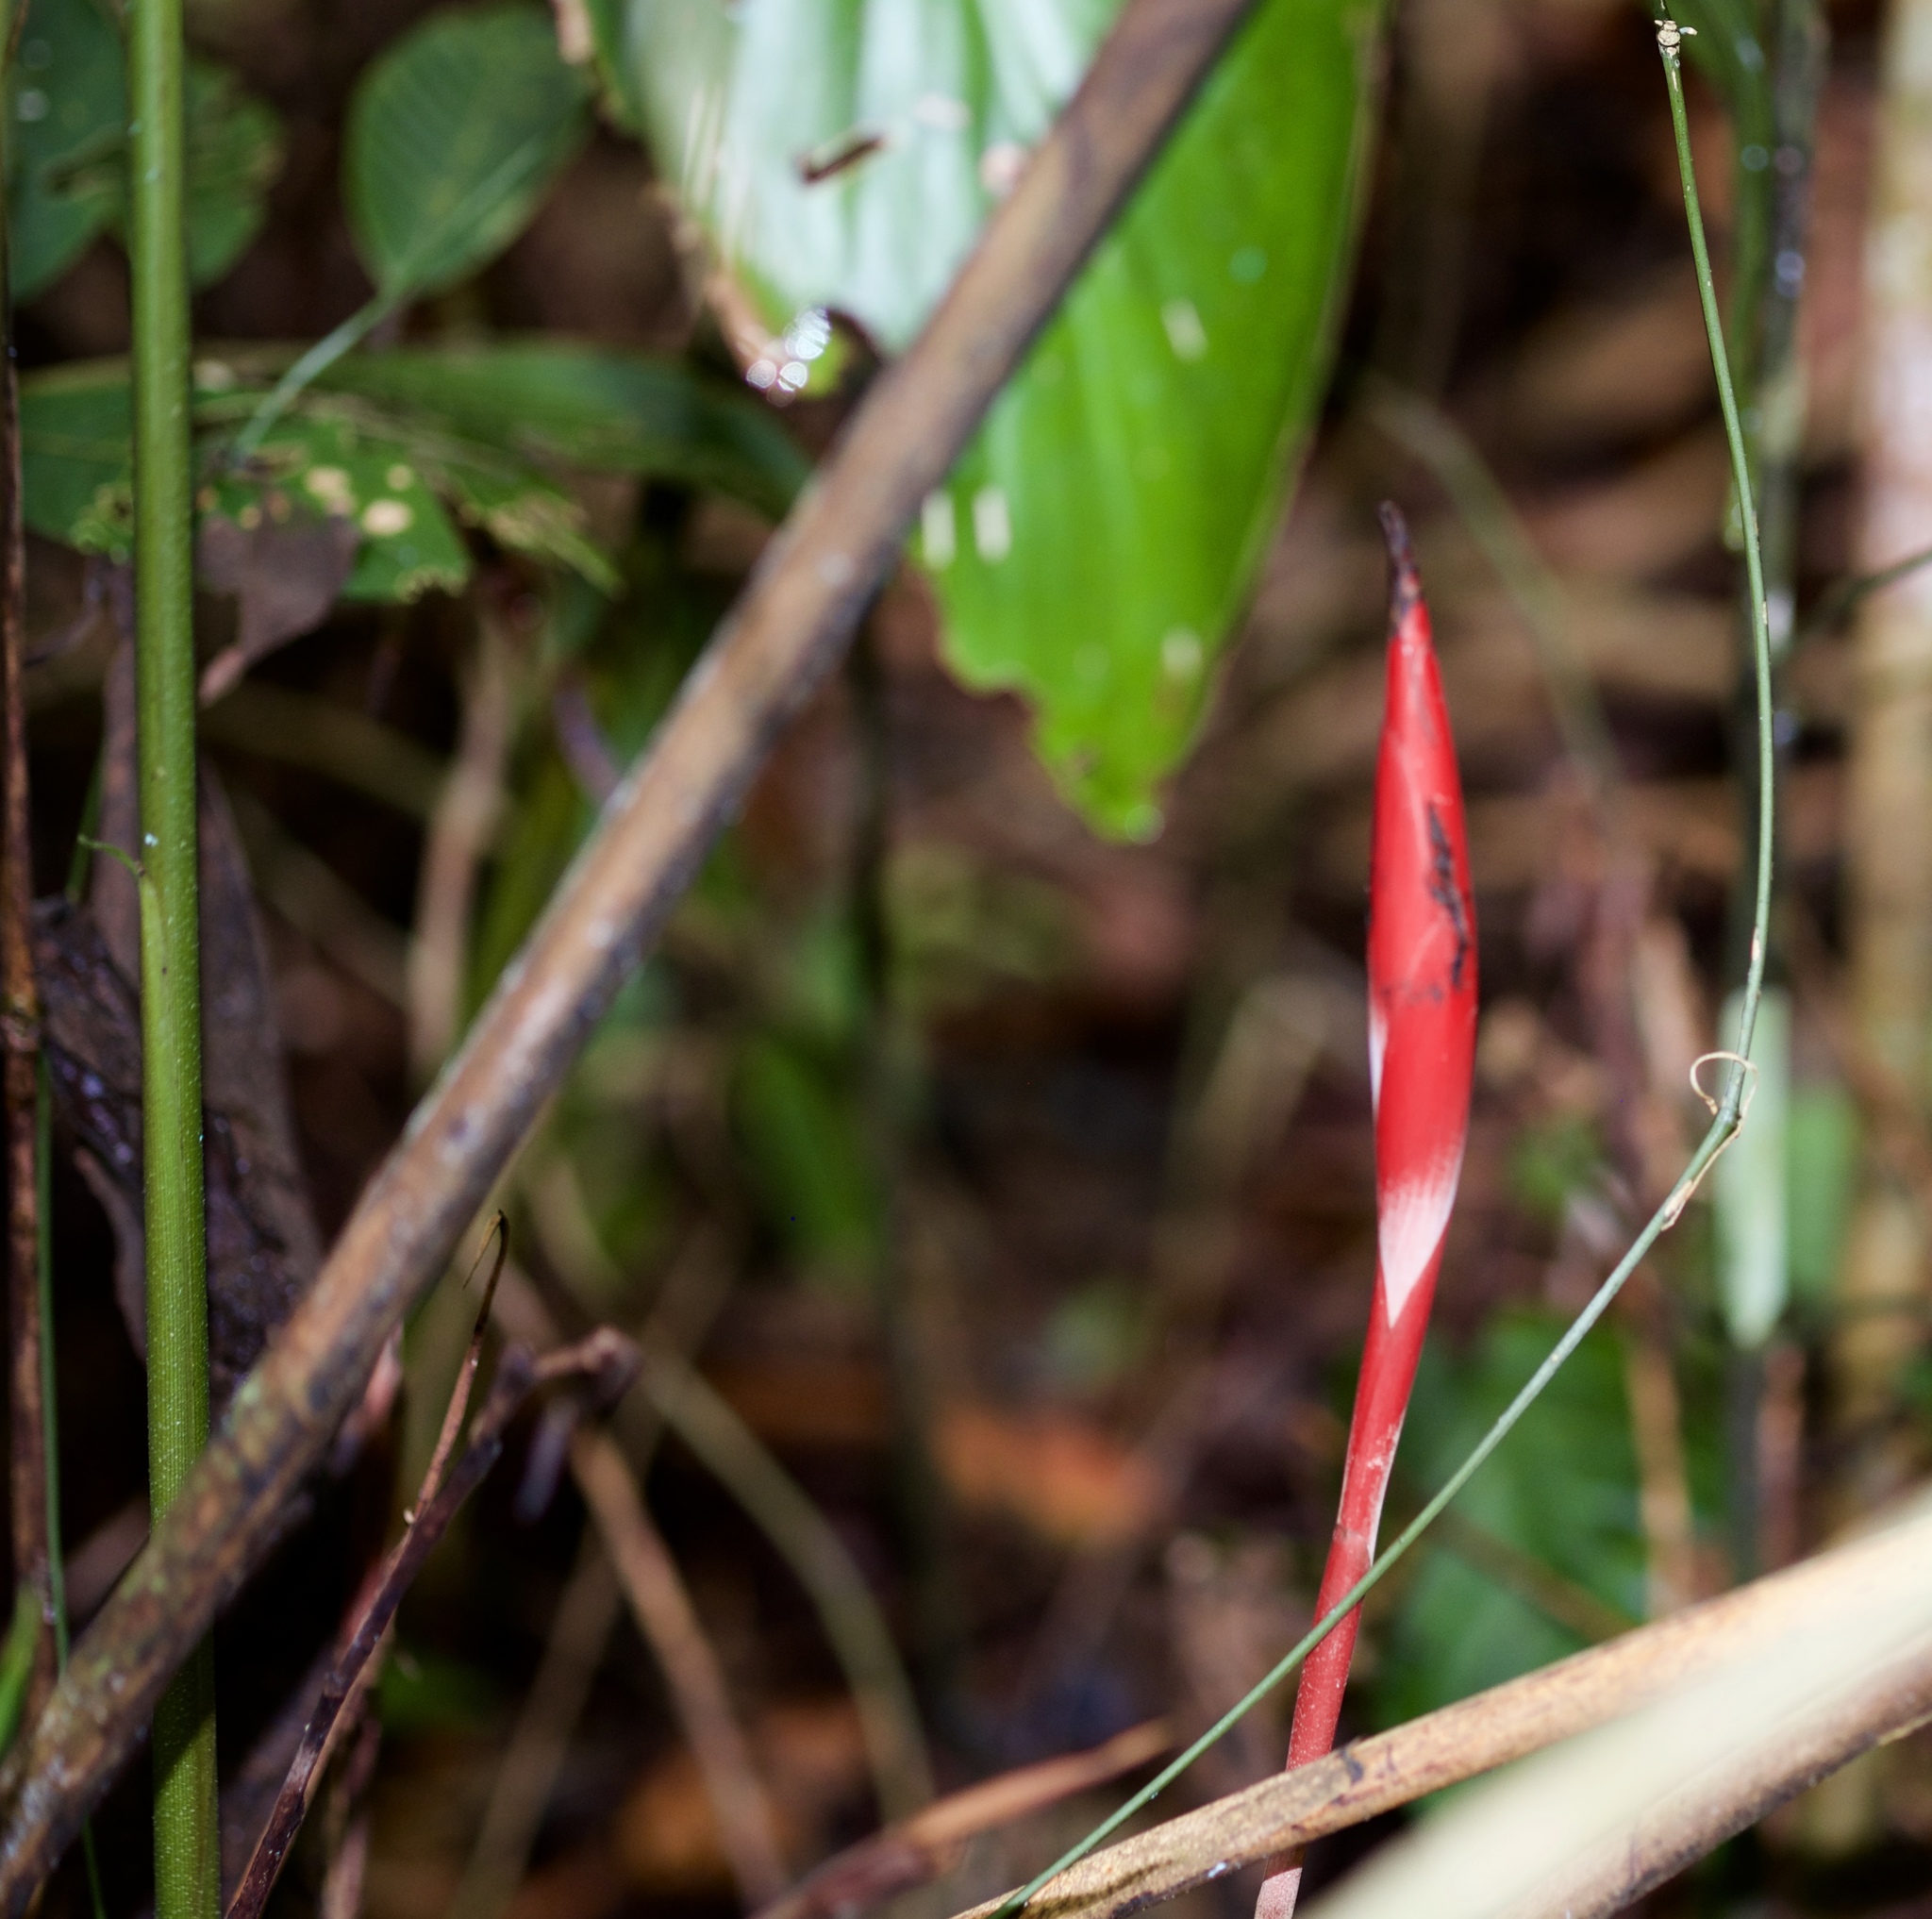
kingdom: Plantae
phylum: Tracheophyta
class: Liliopsida
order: Zingiberales
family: Zingiberaceae
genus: Hornstedtia
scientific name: Hornstedtia gracilis
